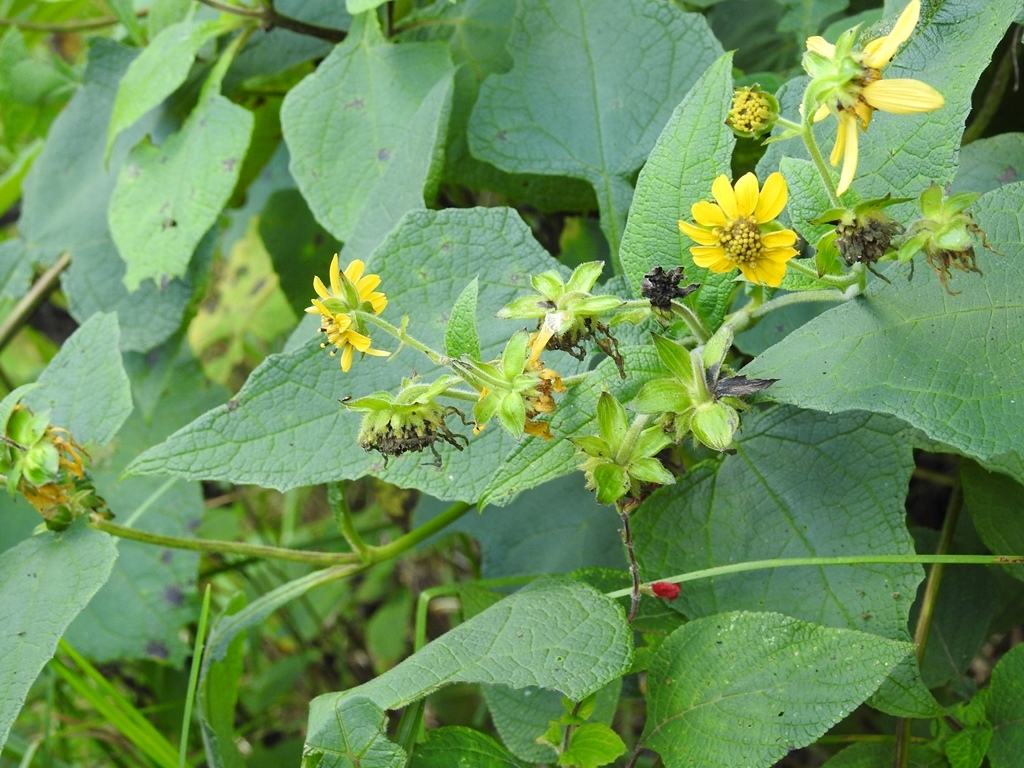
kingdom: Plantae
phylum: Tracheophyta
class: Magnoliopsida
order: Asterales
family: Asteraceae
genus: Smallanthus
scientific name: Smallanthus maculatus
